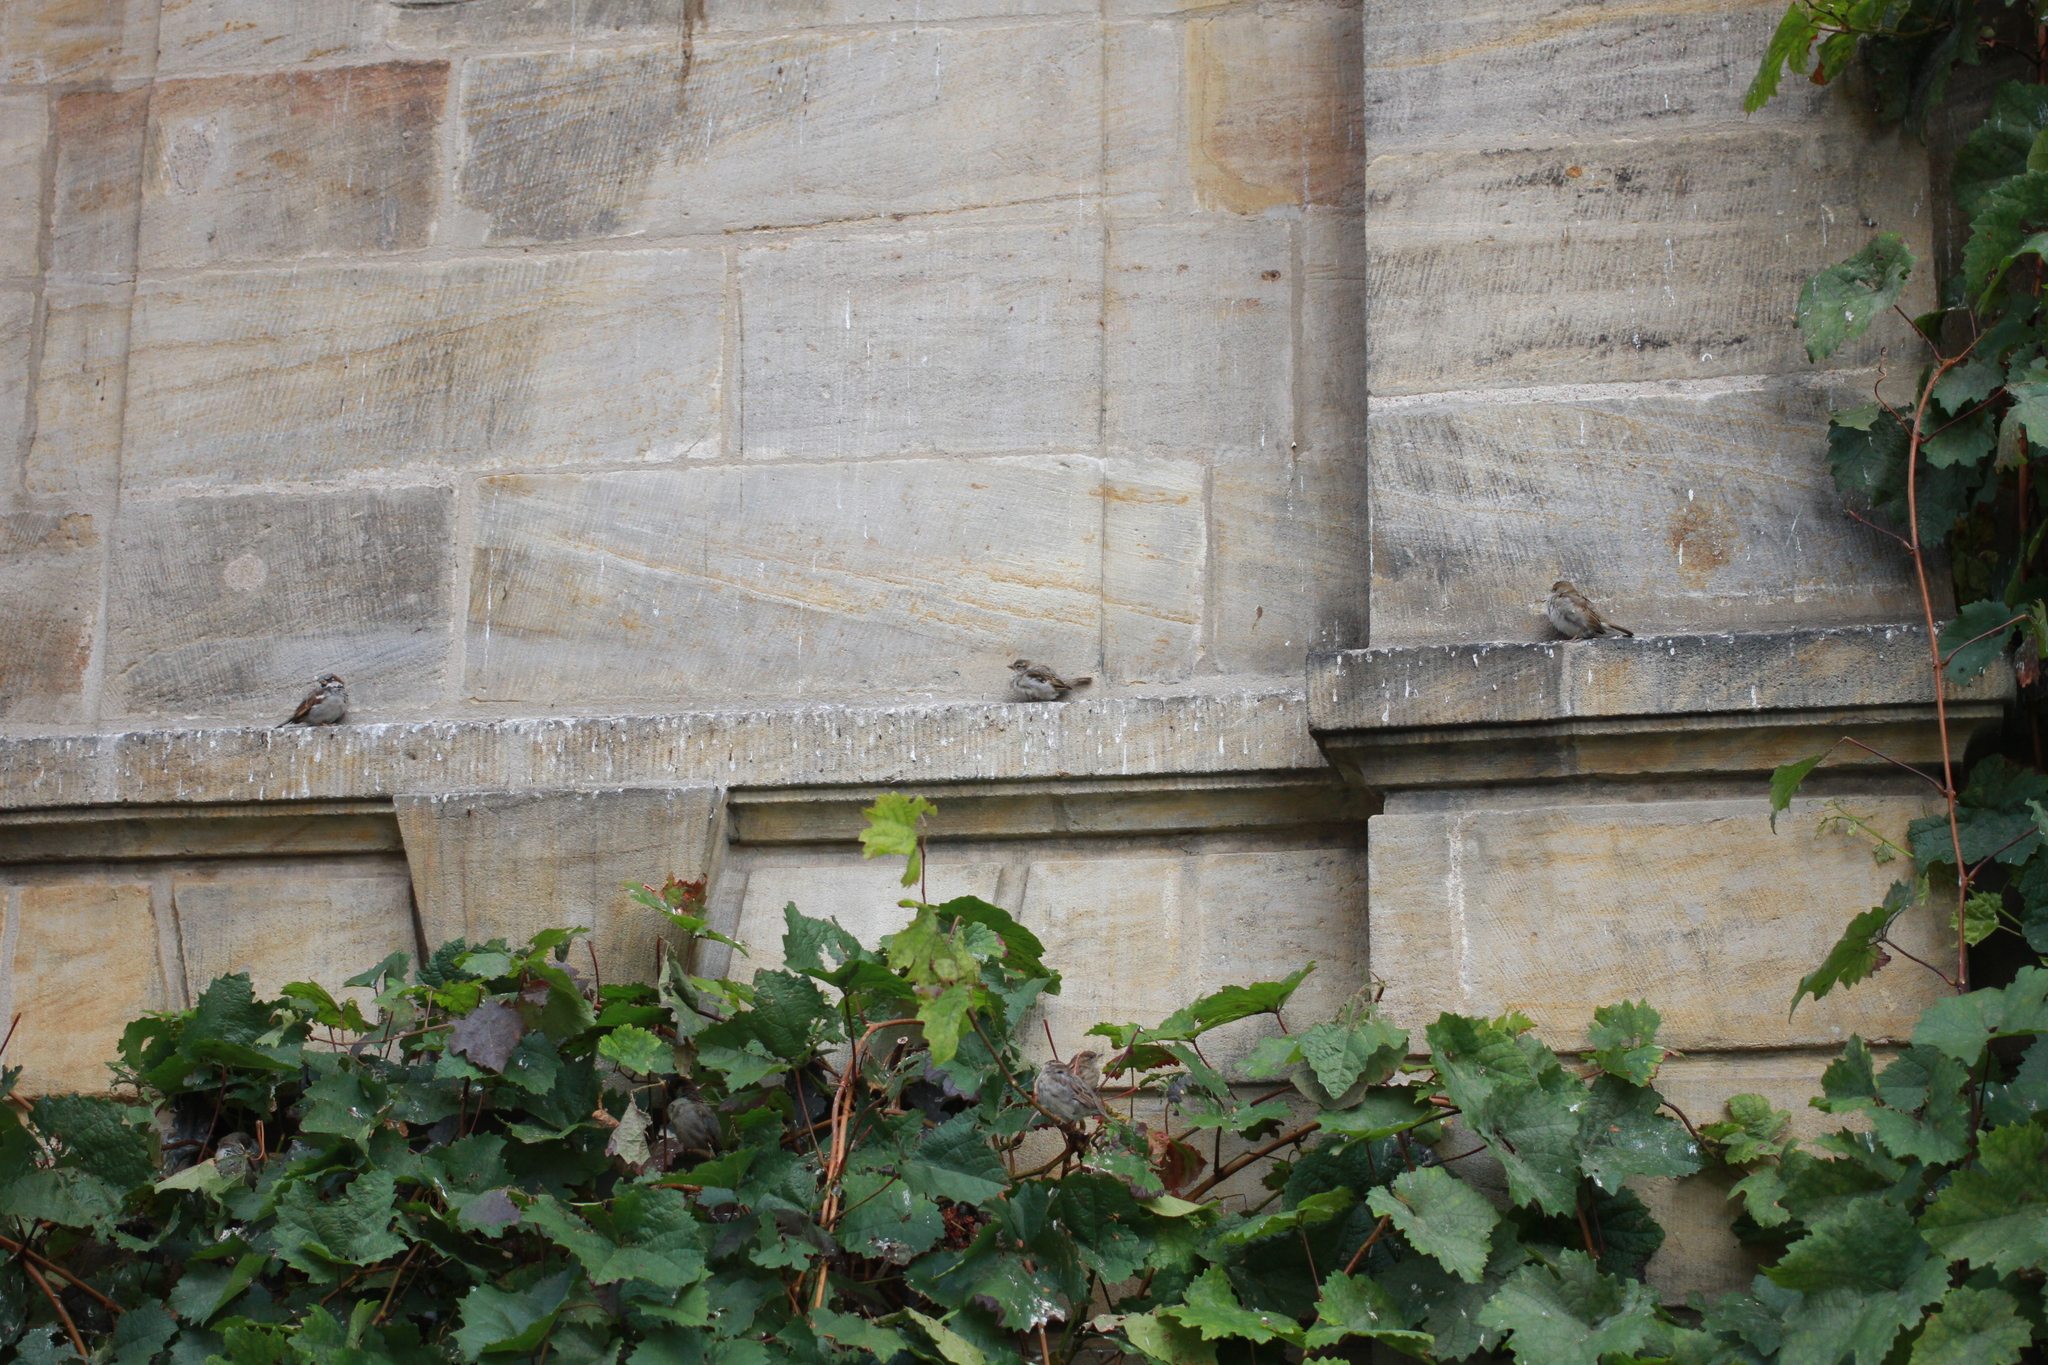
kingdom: Animalia
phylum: Chordata
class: Aves
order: Passeriformes
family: Passeridae
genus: Passer
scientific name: Passer domesticus
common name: House sparrow
